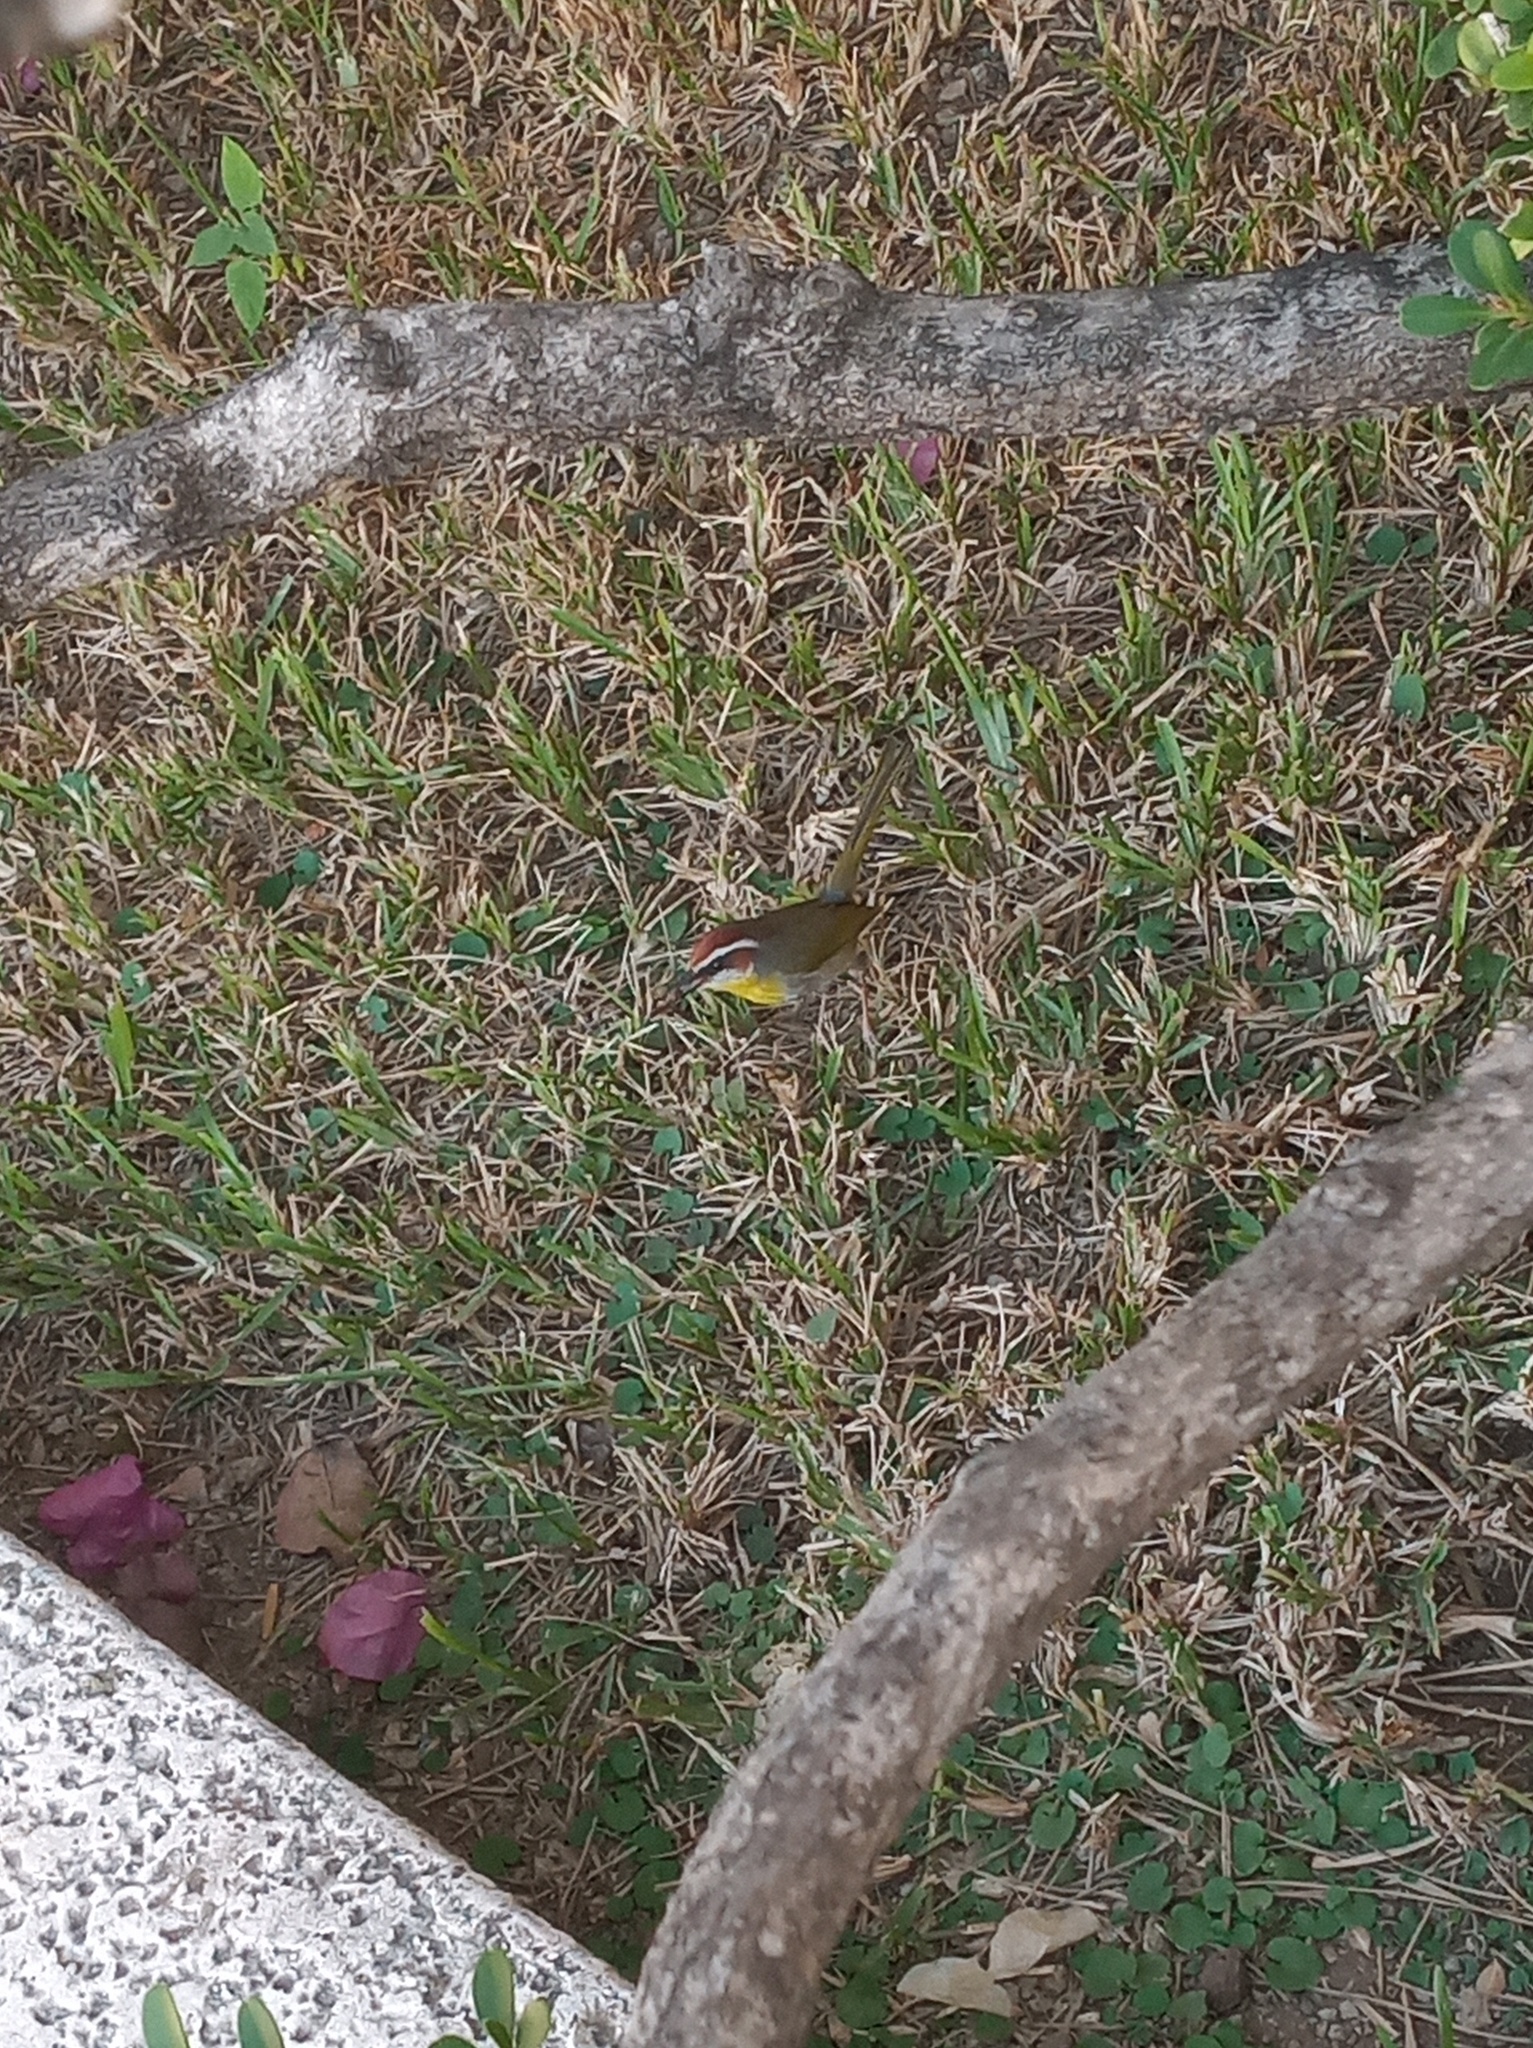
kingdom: Animalia
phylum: Chordata
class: Aves
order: Passeriformes
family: Parulidae
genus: Basileuterus
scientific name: Basileuterus rufifrons
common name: Rufous-capped warbler
